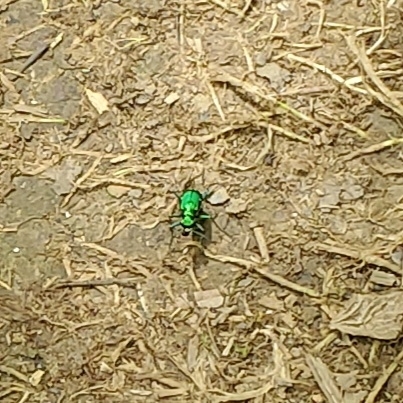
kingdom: Animalia
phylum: Arthropoda
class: Insecta
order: Coleoptera
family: Carabidae
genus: Cicindela
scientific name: Cicindela sexguttata
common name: Six-spotted tiger beetle
